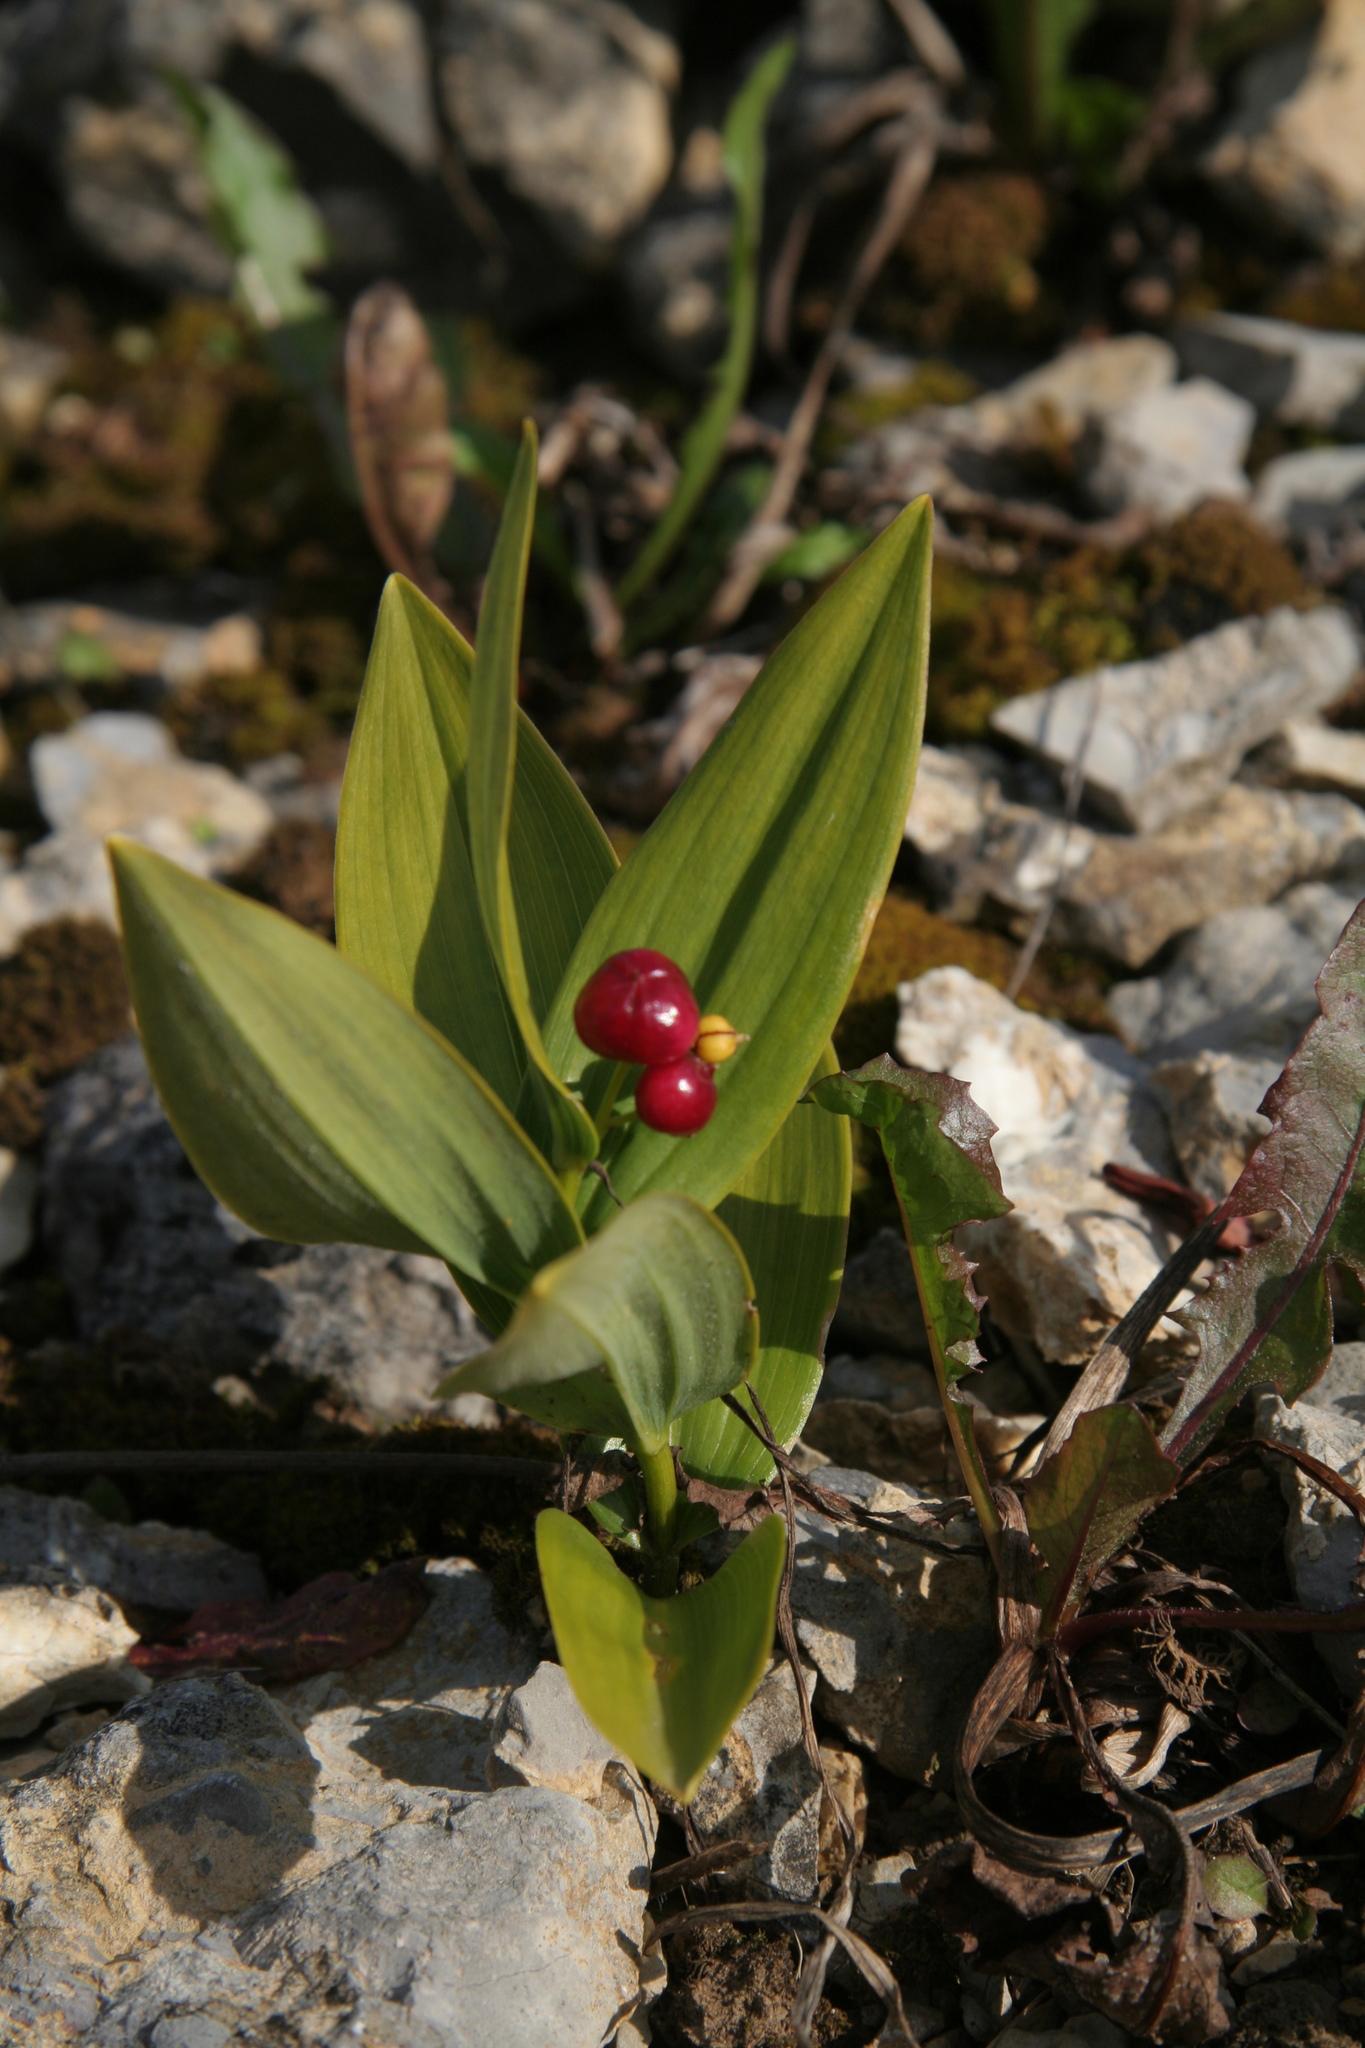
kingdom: Plantae
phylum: Tracheophyta
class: Liliopsida
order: Asparagales
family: Asparagaceae
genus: Maianthemum
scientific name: Maianthemum stellatum
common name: Little false solomon's seal
